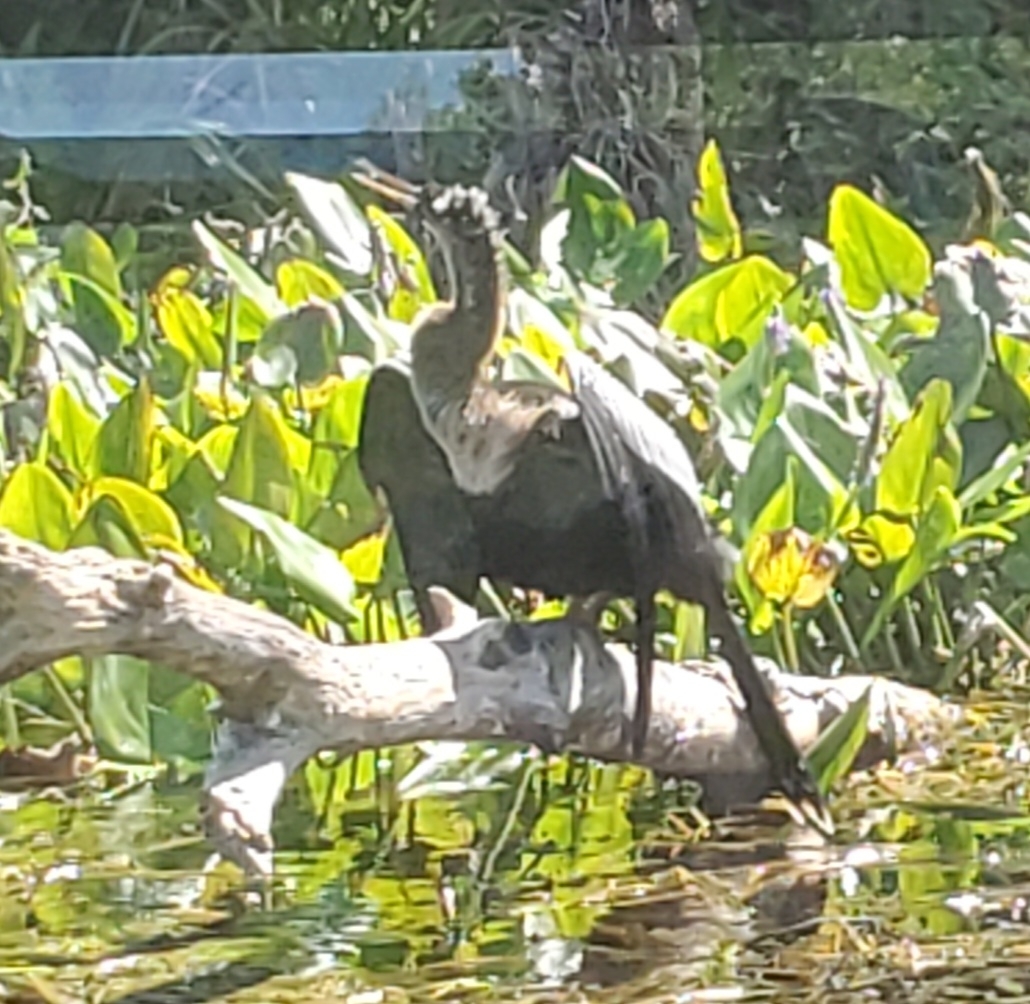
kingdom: Animalia
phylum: Chordata
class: Aves
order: Suliformes
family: Anhingidae
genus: Anhinga
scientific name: Anhinga anhinga
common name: Anhinga
